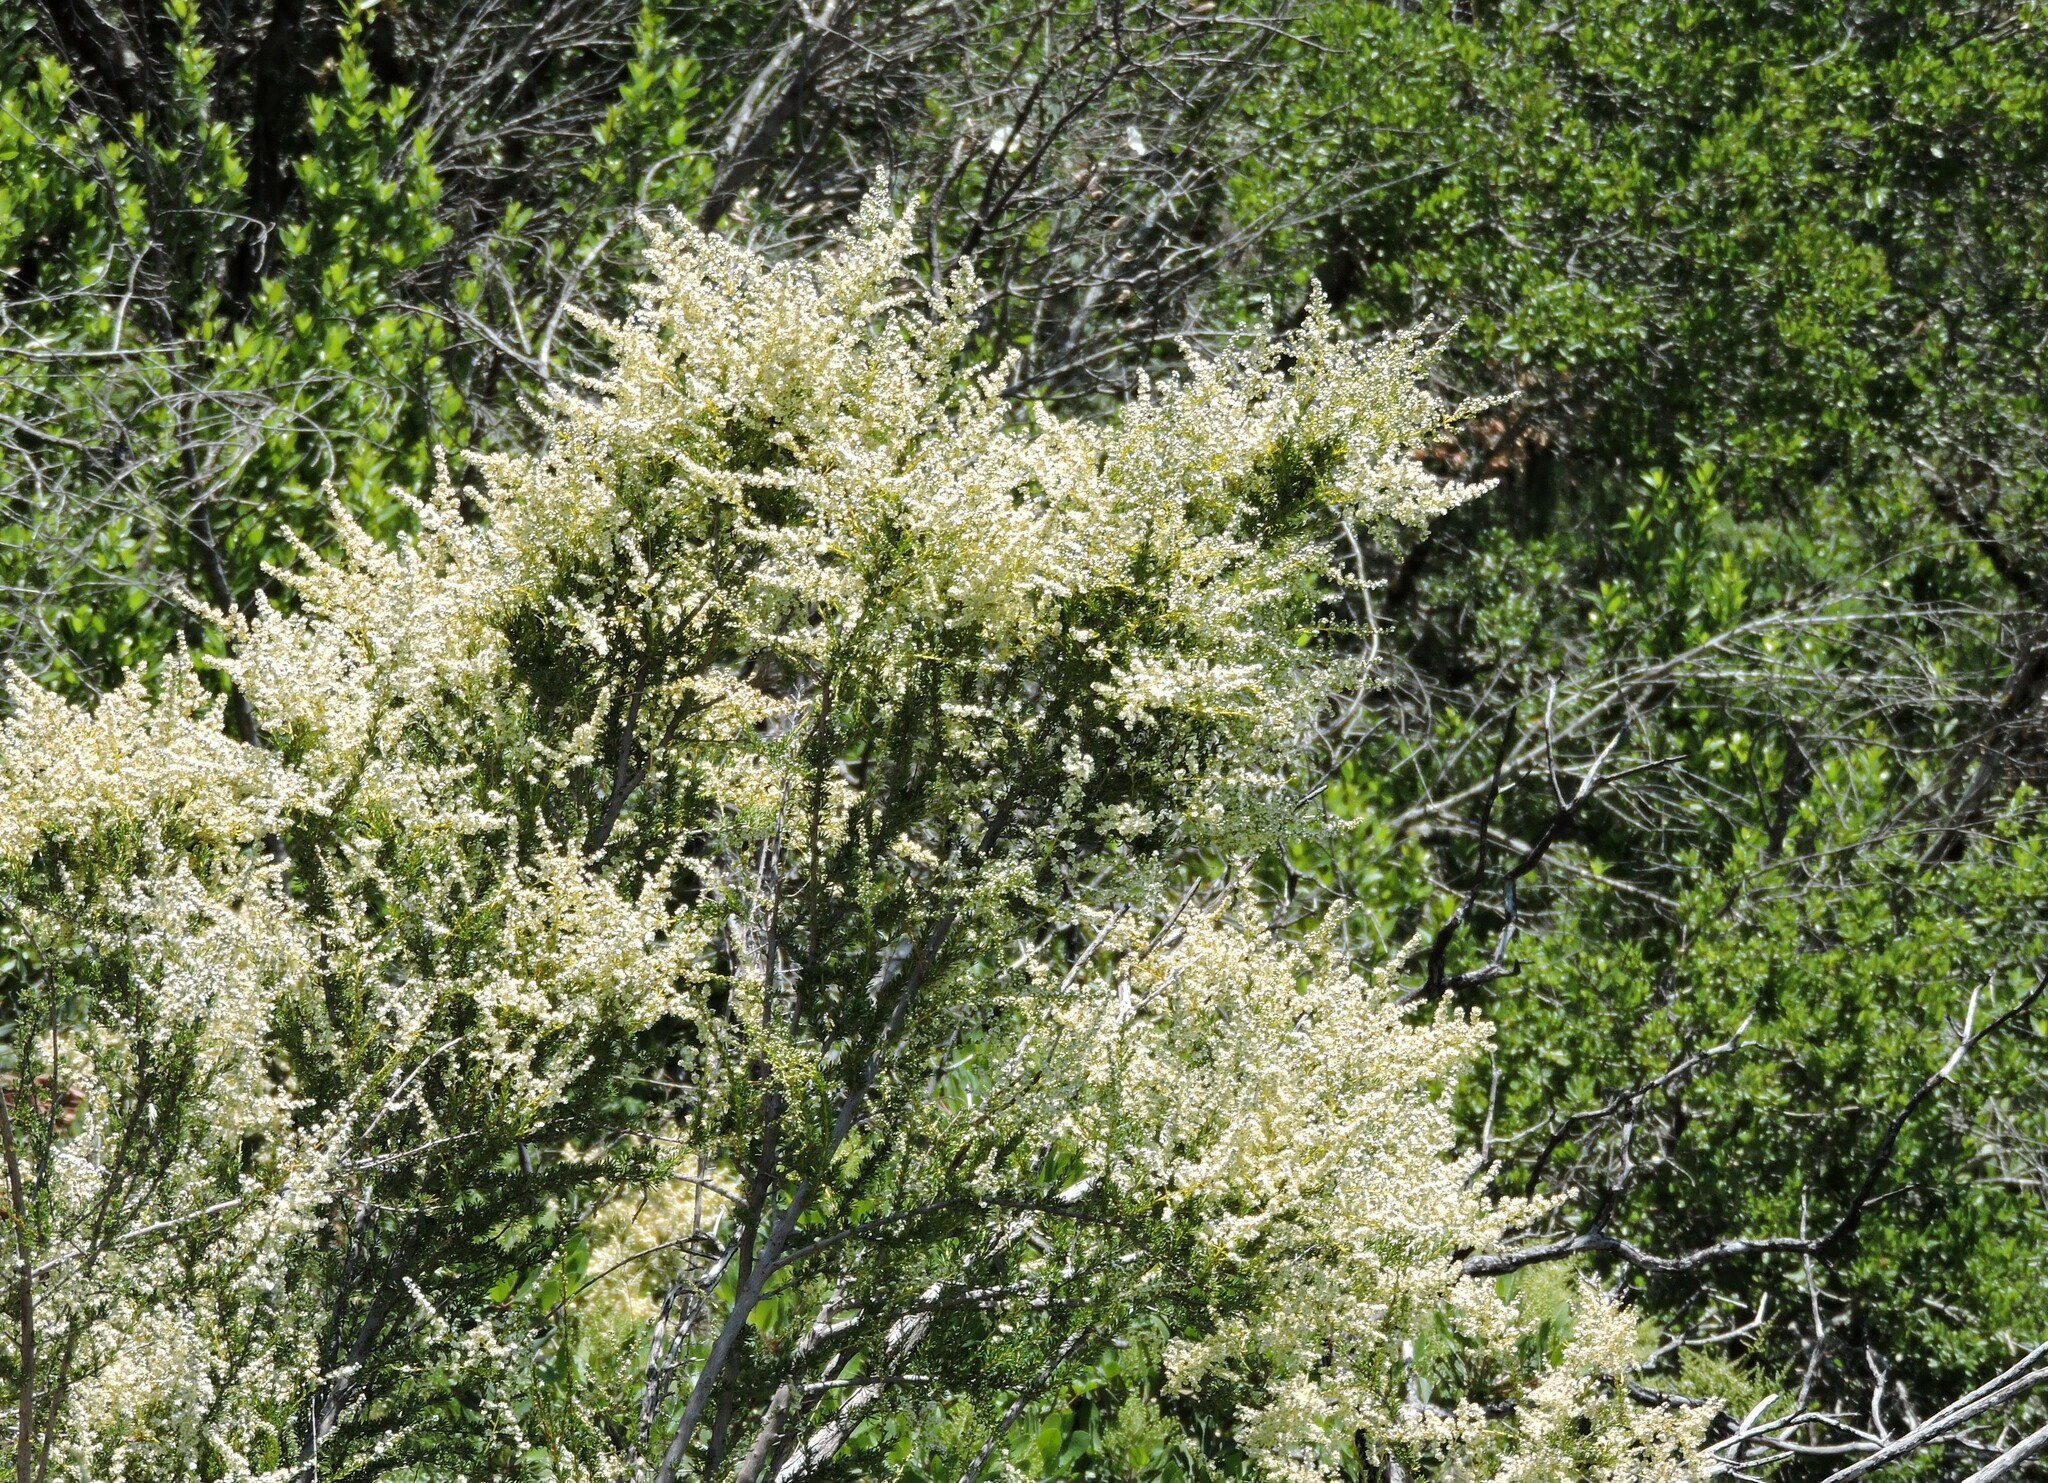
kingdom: Plantae
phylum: Tracheophyta
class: Magnoliopsida
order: Rosales
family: Rosaceae
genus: Adenostoma
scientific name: Adenostoma fasciculatum
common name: Chamise
